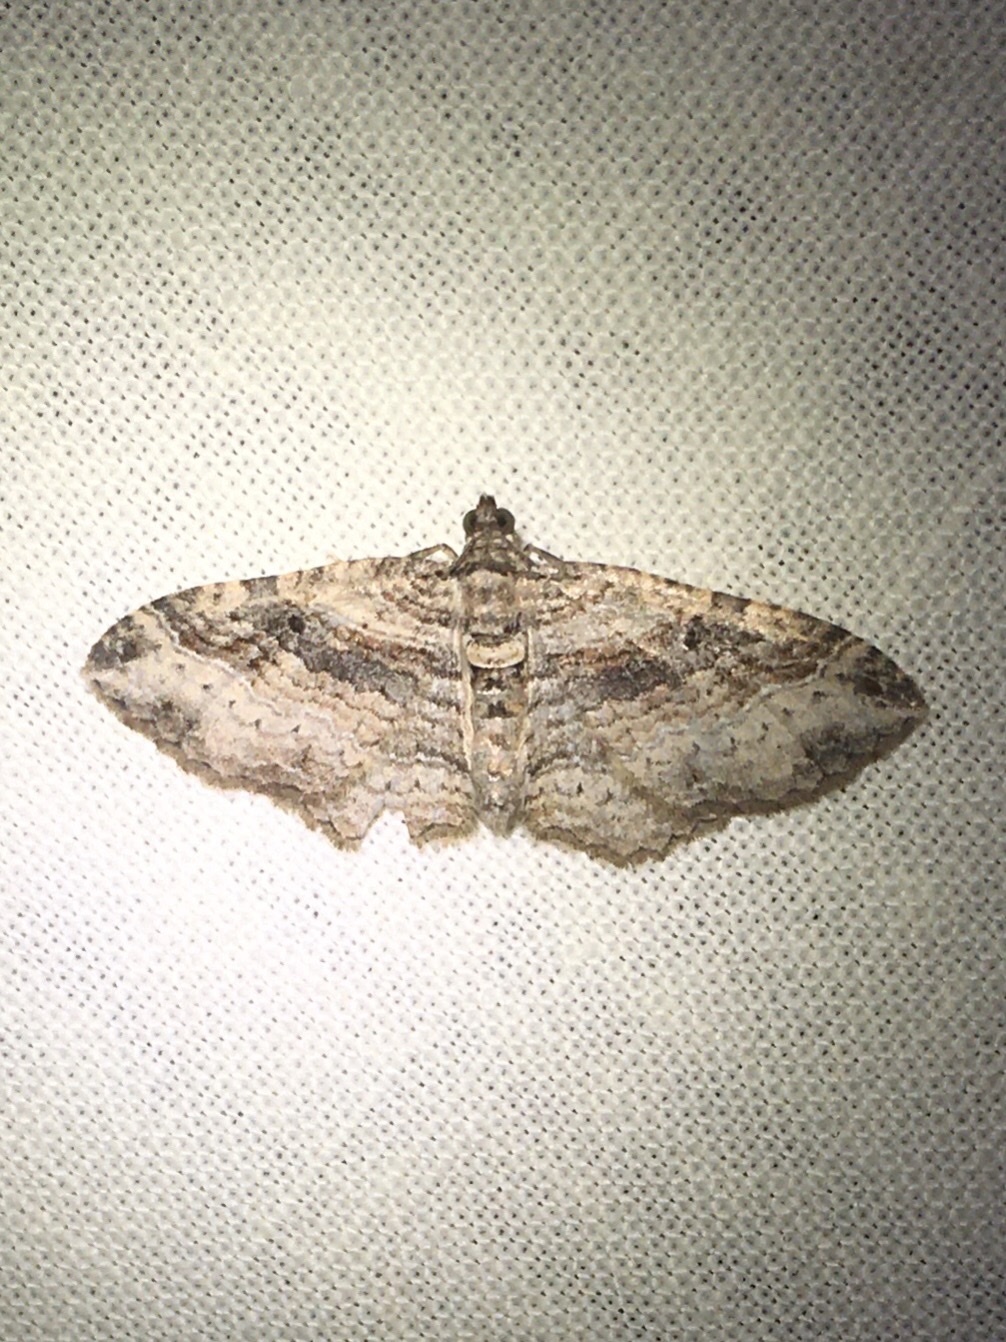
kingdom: Animalia
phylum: Arthropoda
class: Insecta
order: Lepidoptera
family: Geometridae
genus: Costaconvexa
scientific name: Costaconvexa centrostrigaria
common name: Bent-line carpet
